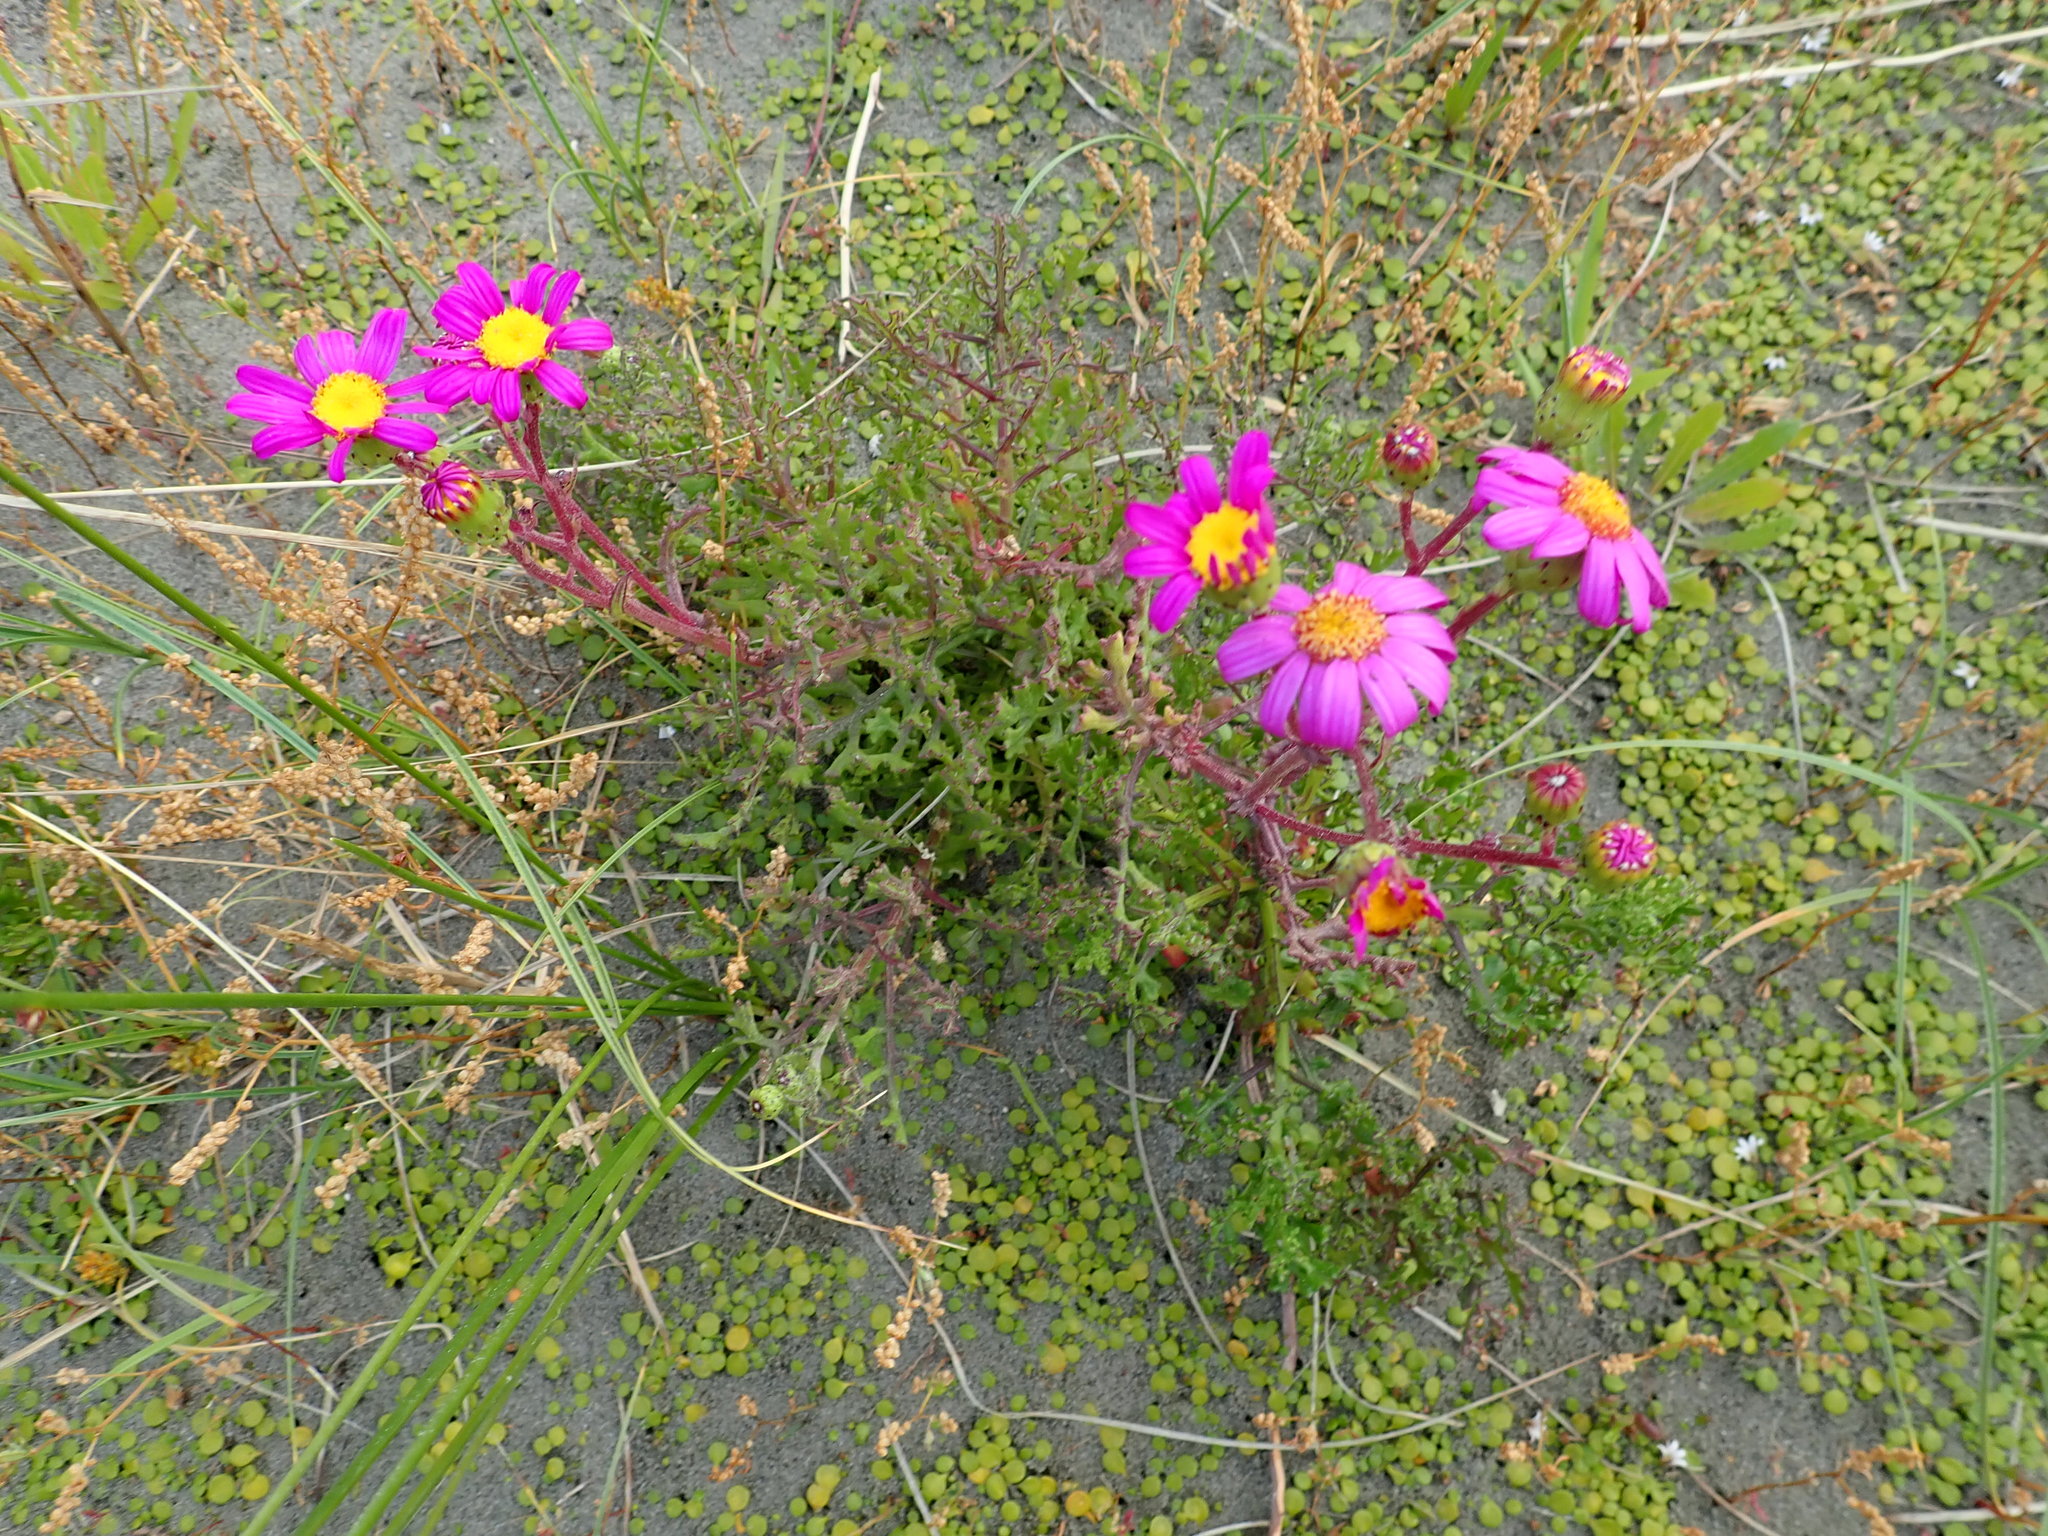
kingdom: Plantae
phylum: Tracheophyta
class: Magnoliopsida
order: Asterales
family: Asteraceae
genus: Senecio
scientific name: Senecio elegans
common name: Purple groundsel
